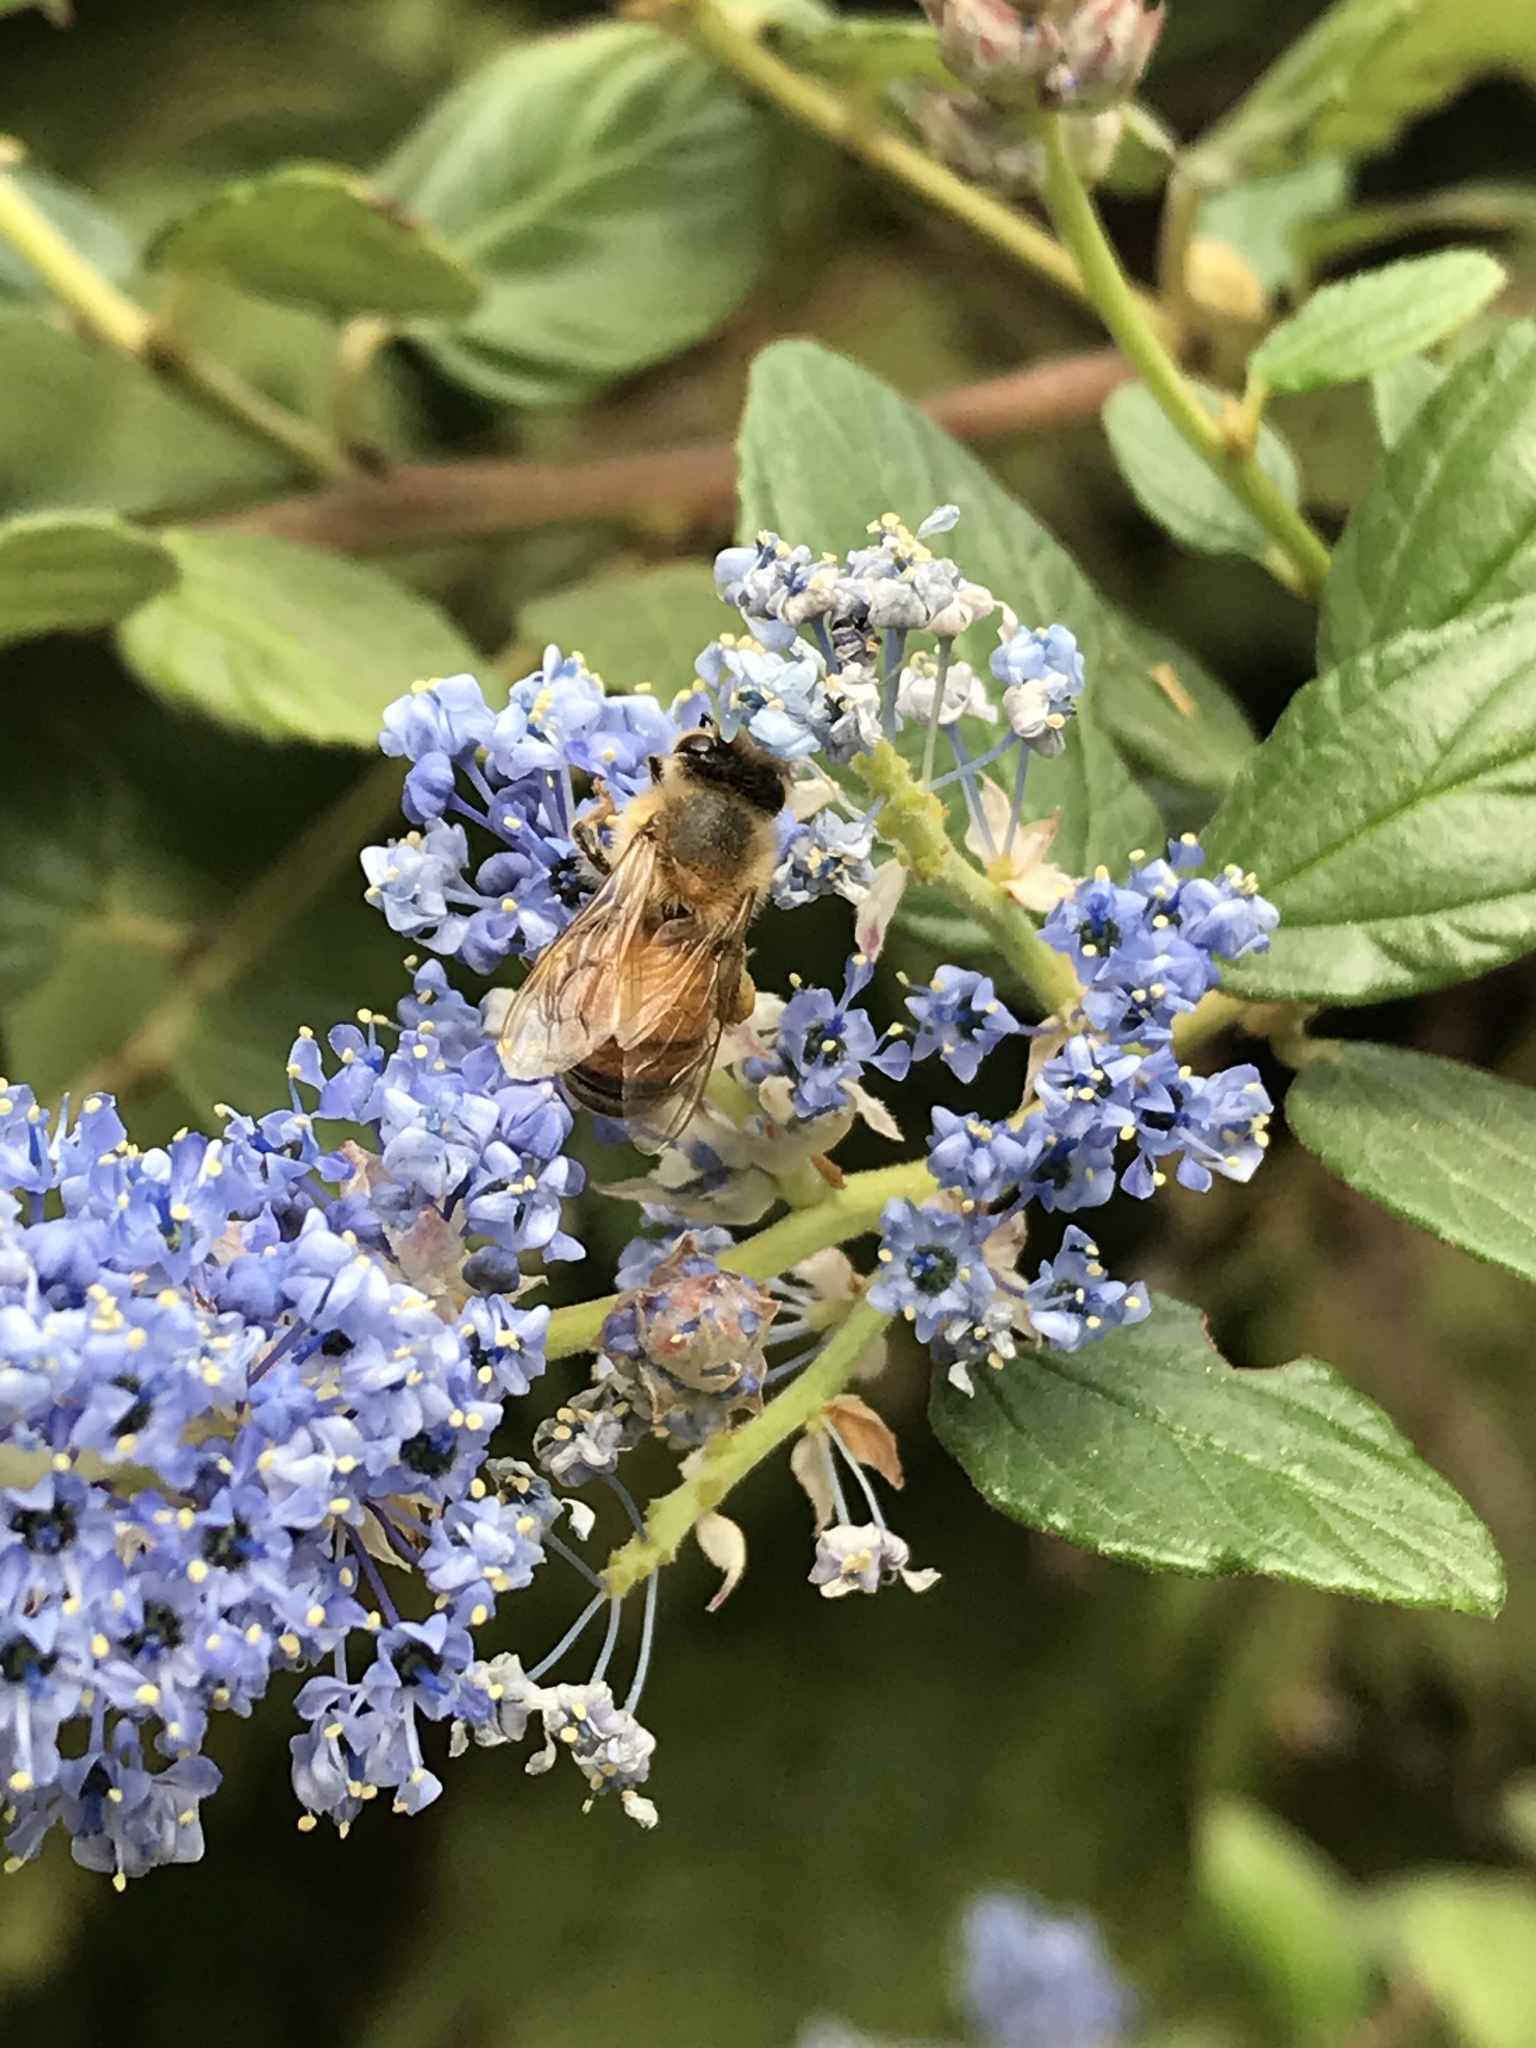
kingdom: Animalia
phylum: Arthropoda
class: Insecta
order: Hymenoptera
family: Apidae
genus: Apis
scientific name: Apis mellifera
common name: Honey bee
